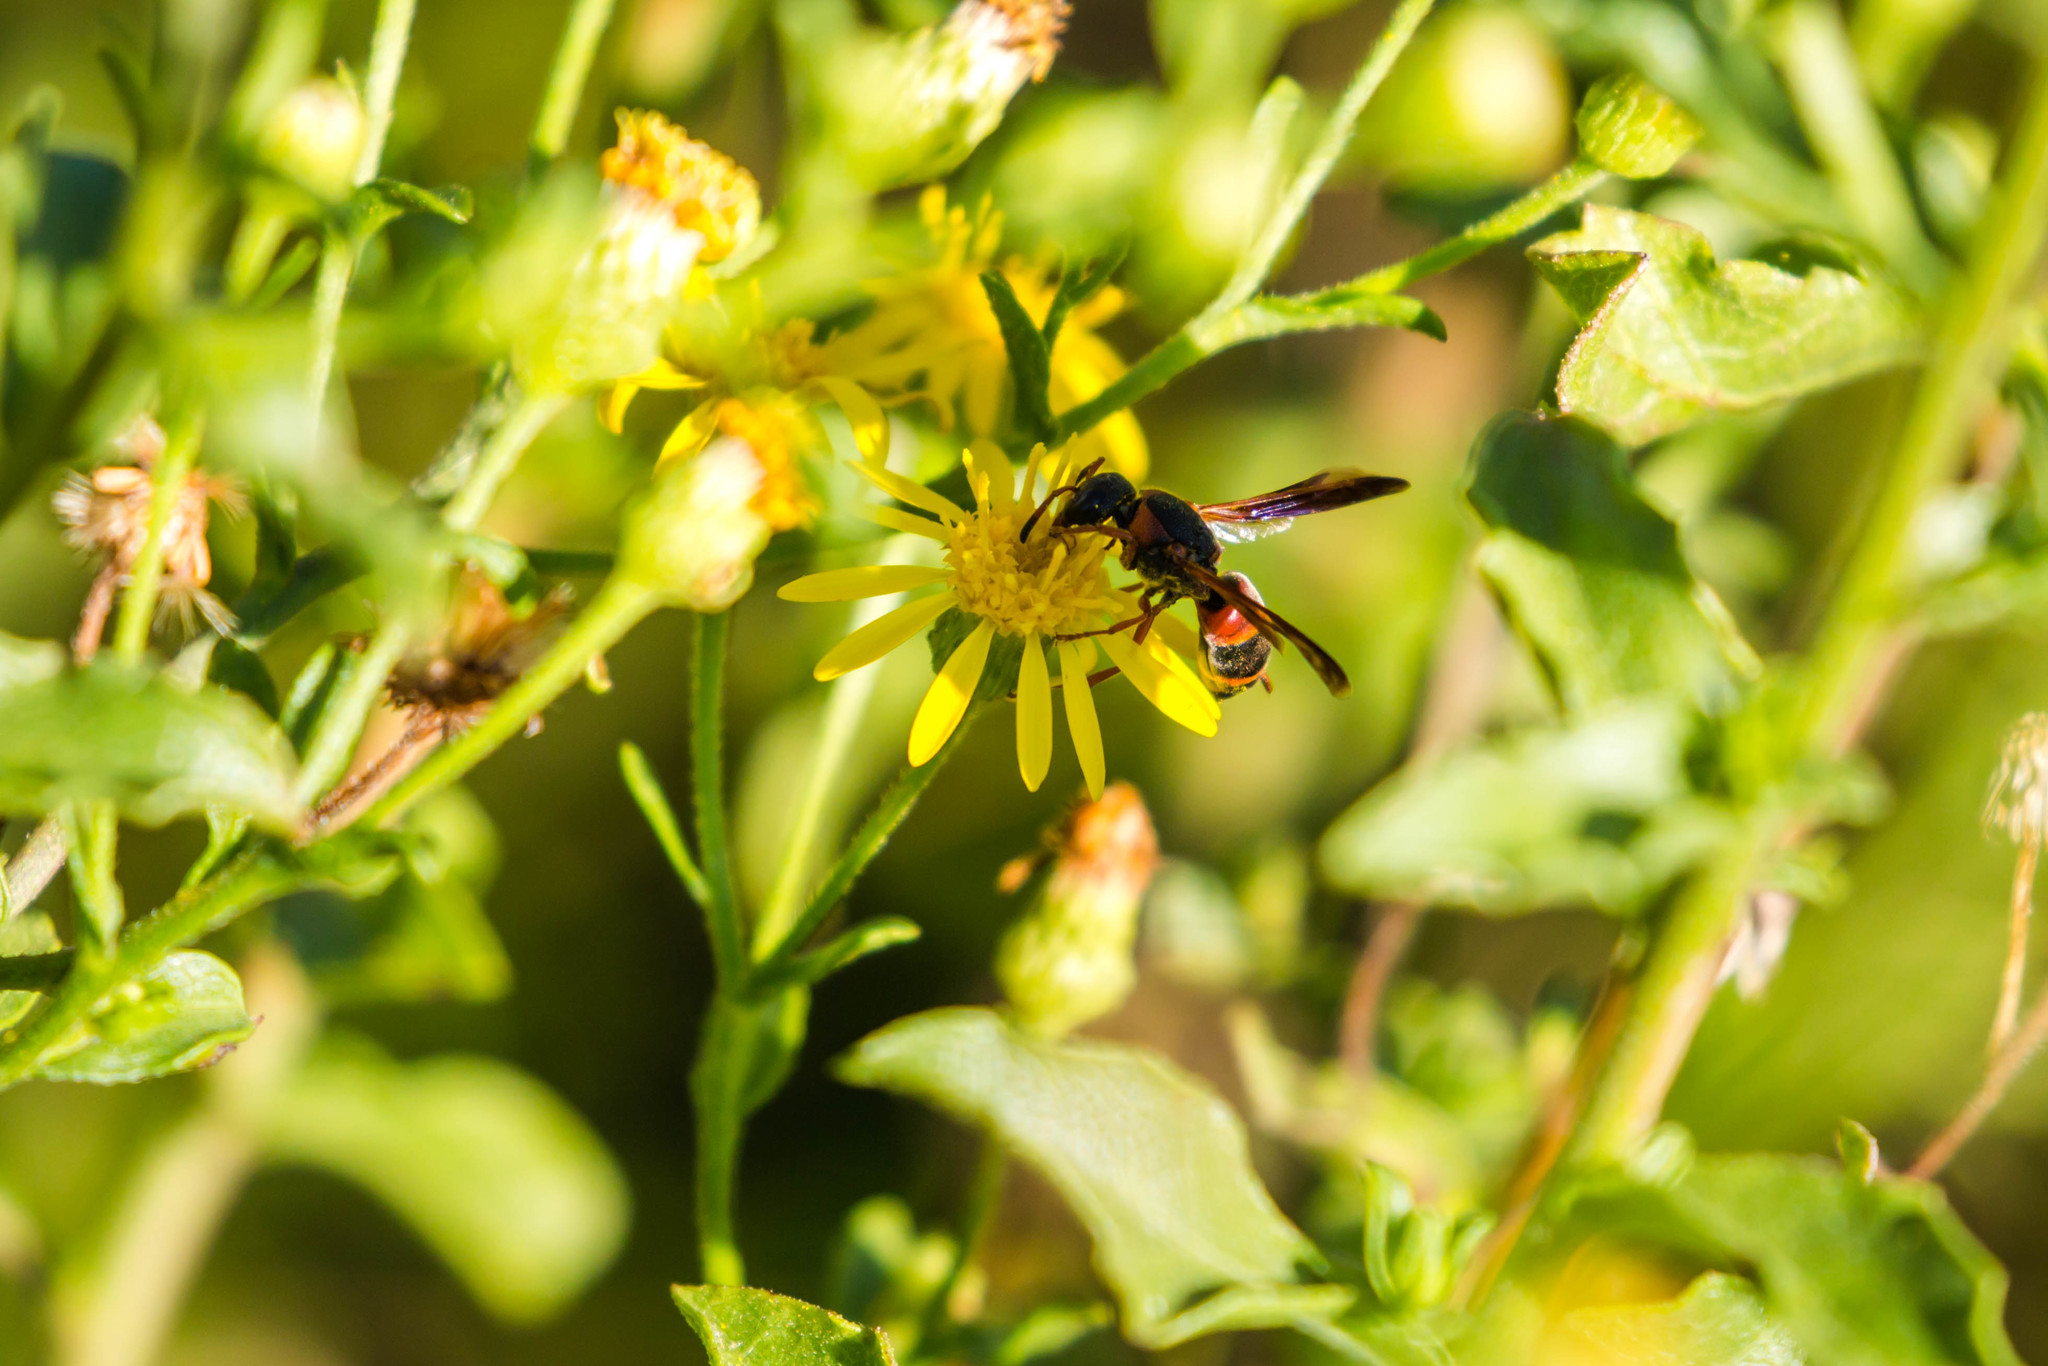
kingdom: Animalia
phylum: Arthropoda
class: Insecta
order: Hymenoptera
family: Eumenidae
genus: Pachodynerus
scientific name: Pachodynerus erynnis
